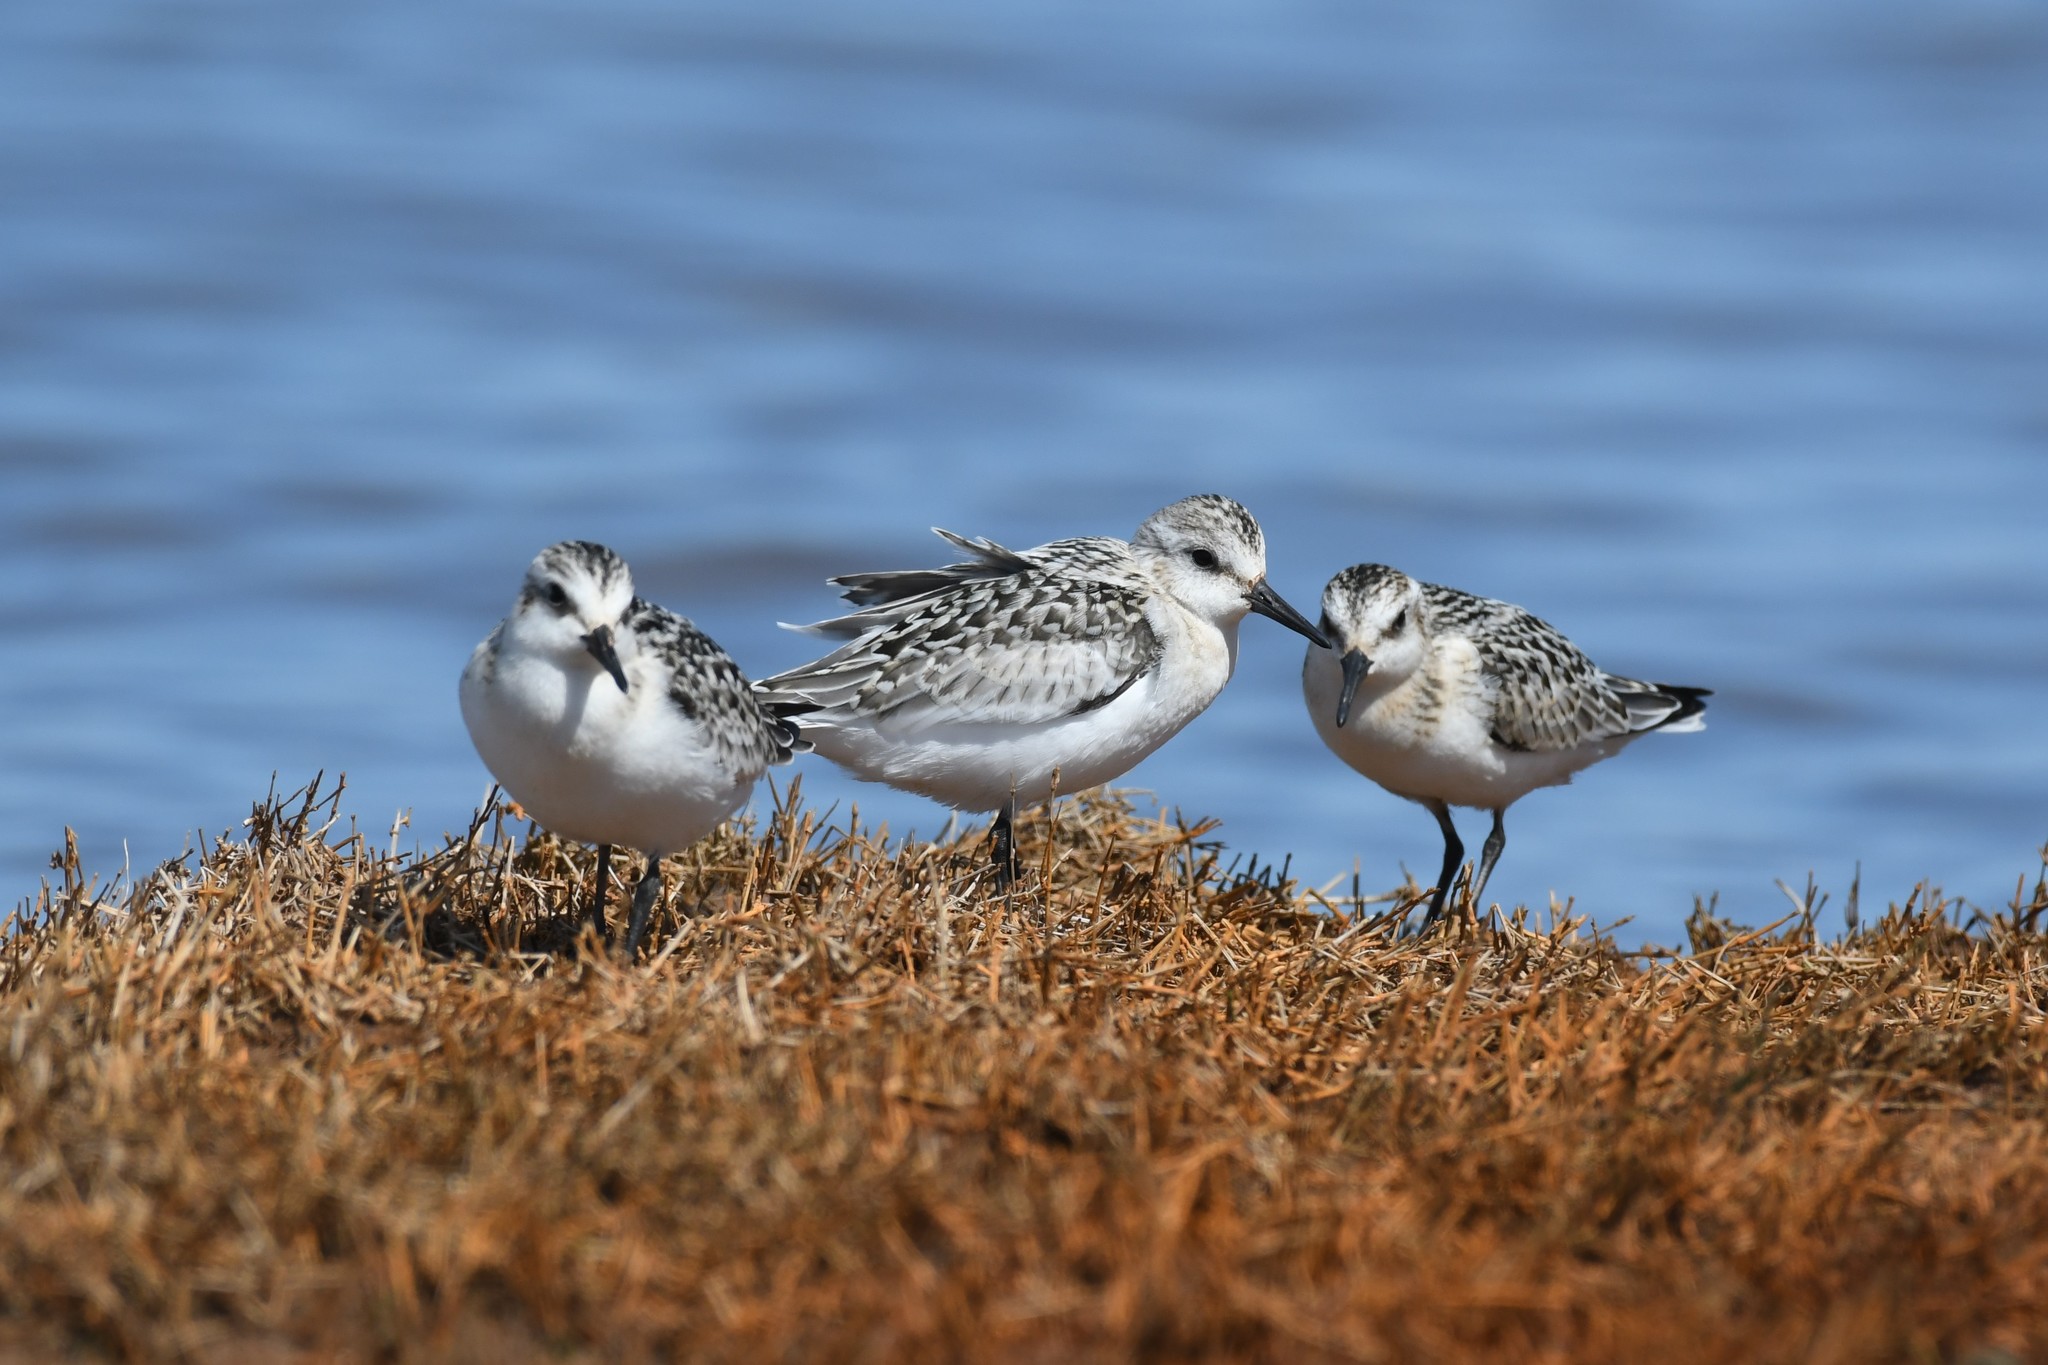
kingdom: Animalia
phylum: Chordata
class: Aves
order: Charadriiformes
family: Scolopacidae
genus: Calidris
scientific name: Calidris alba
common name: Sanderling
